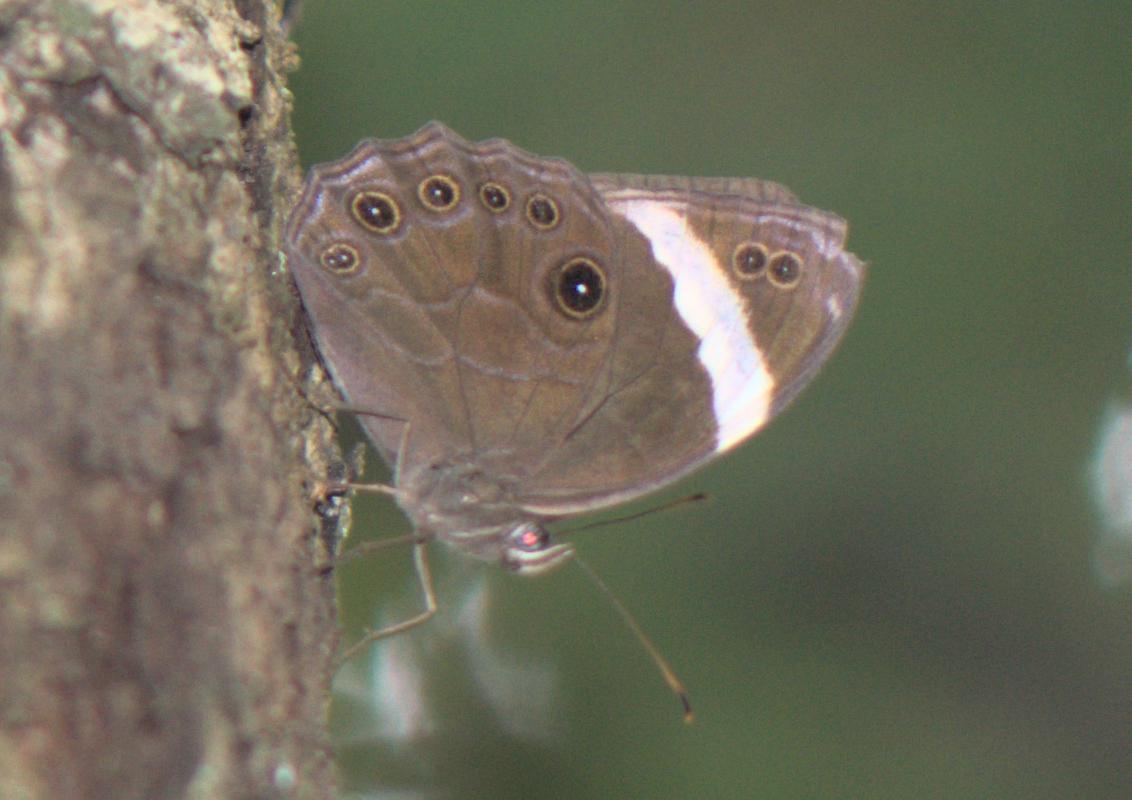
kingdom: Animalia
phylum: Arthropoda
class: Insecta
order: Lepidoptera
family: Nymphalidae
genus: Lethe
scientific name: Lethe verma
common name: Straight-banded treebrown
